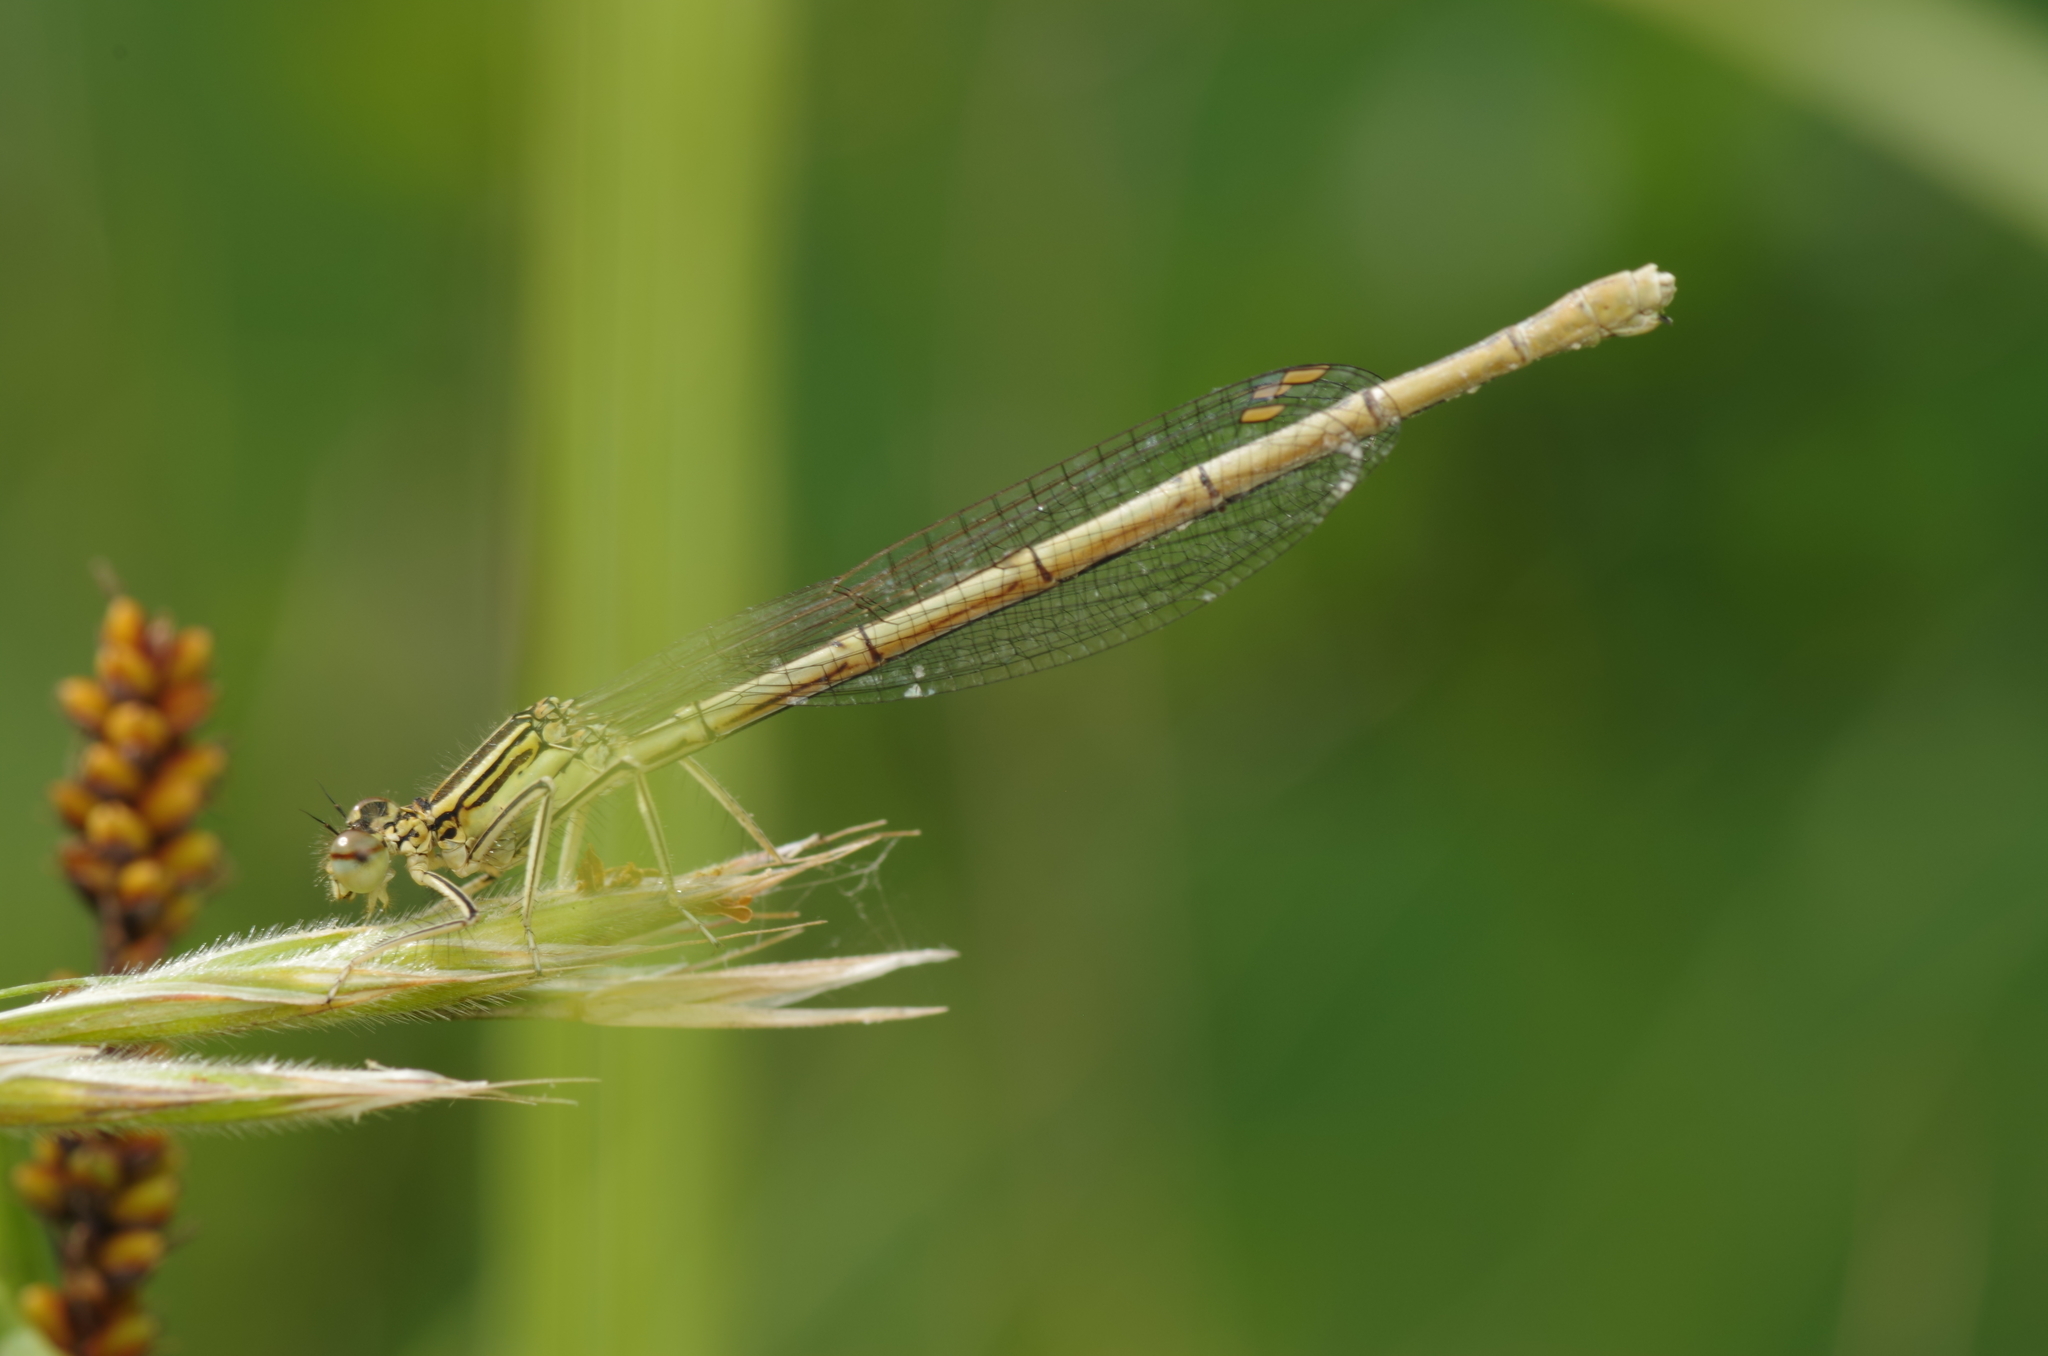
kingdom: Animalia
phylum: Arthropoda
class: Insecta
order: Odonata
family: Platycnemididae
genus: Platycnemis
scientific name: Platycnemis pennipes
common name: White-legged damselfly
